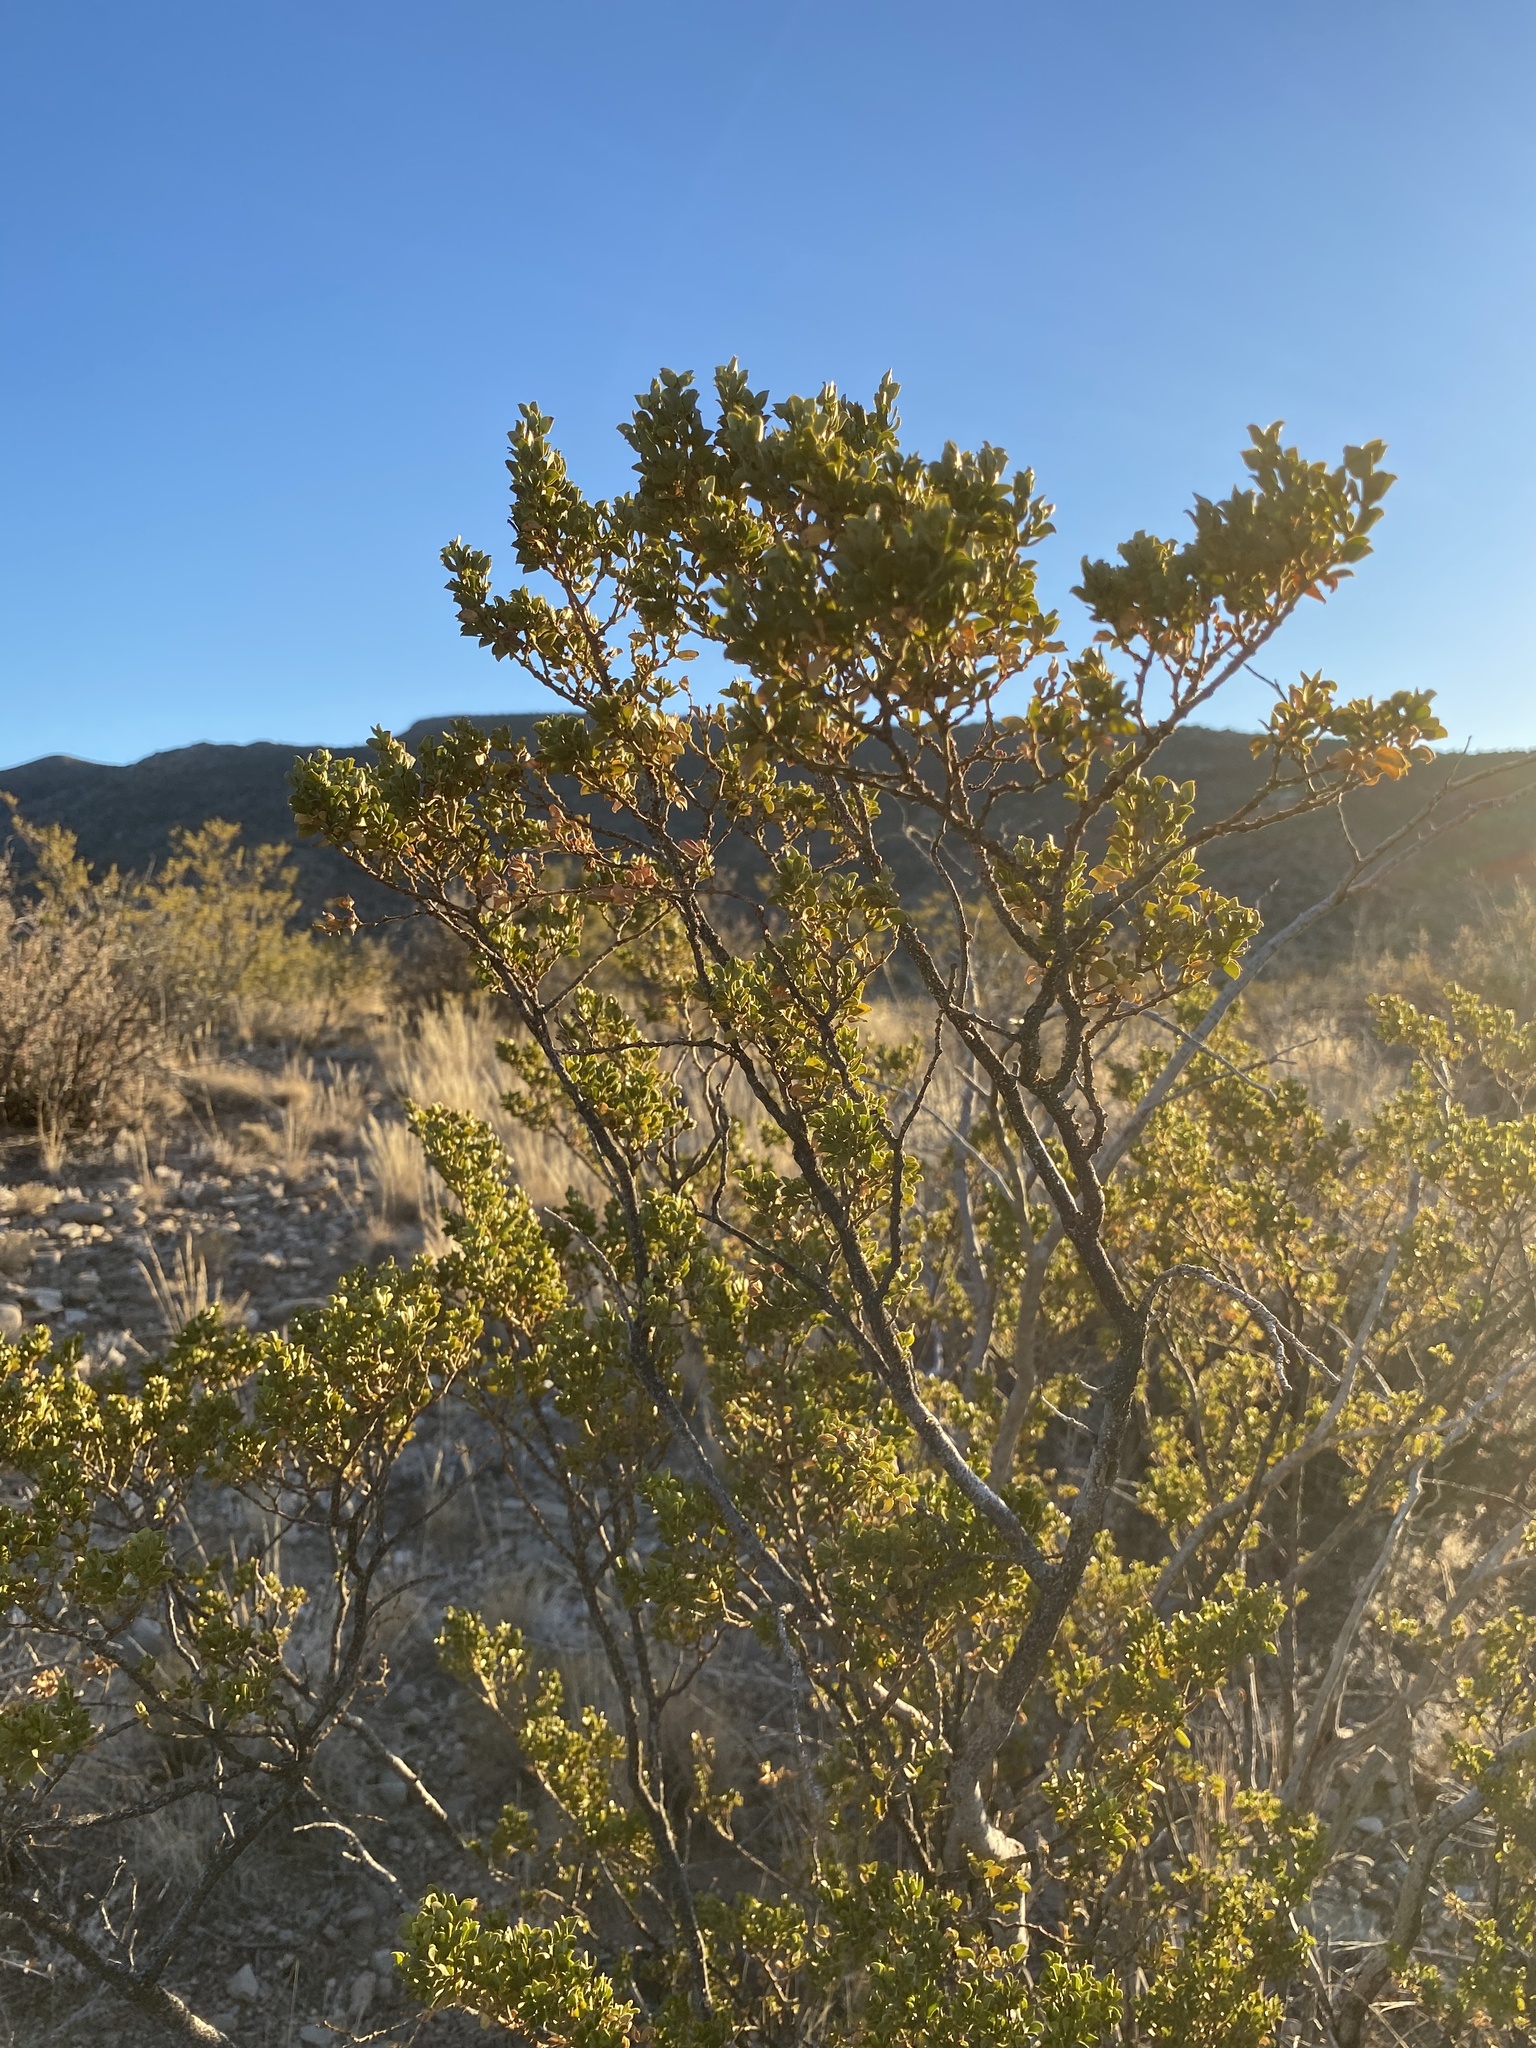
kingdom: Plantae
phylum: Tracheophyta
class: Magnoliopsida
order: Zygophyllales
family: Zygophyllaceae
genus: Larrea
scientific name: Larrea tridentata
